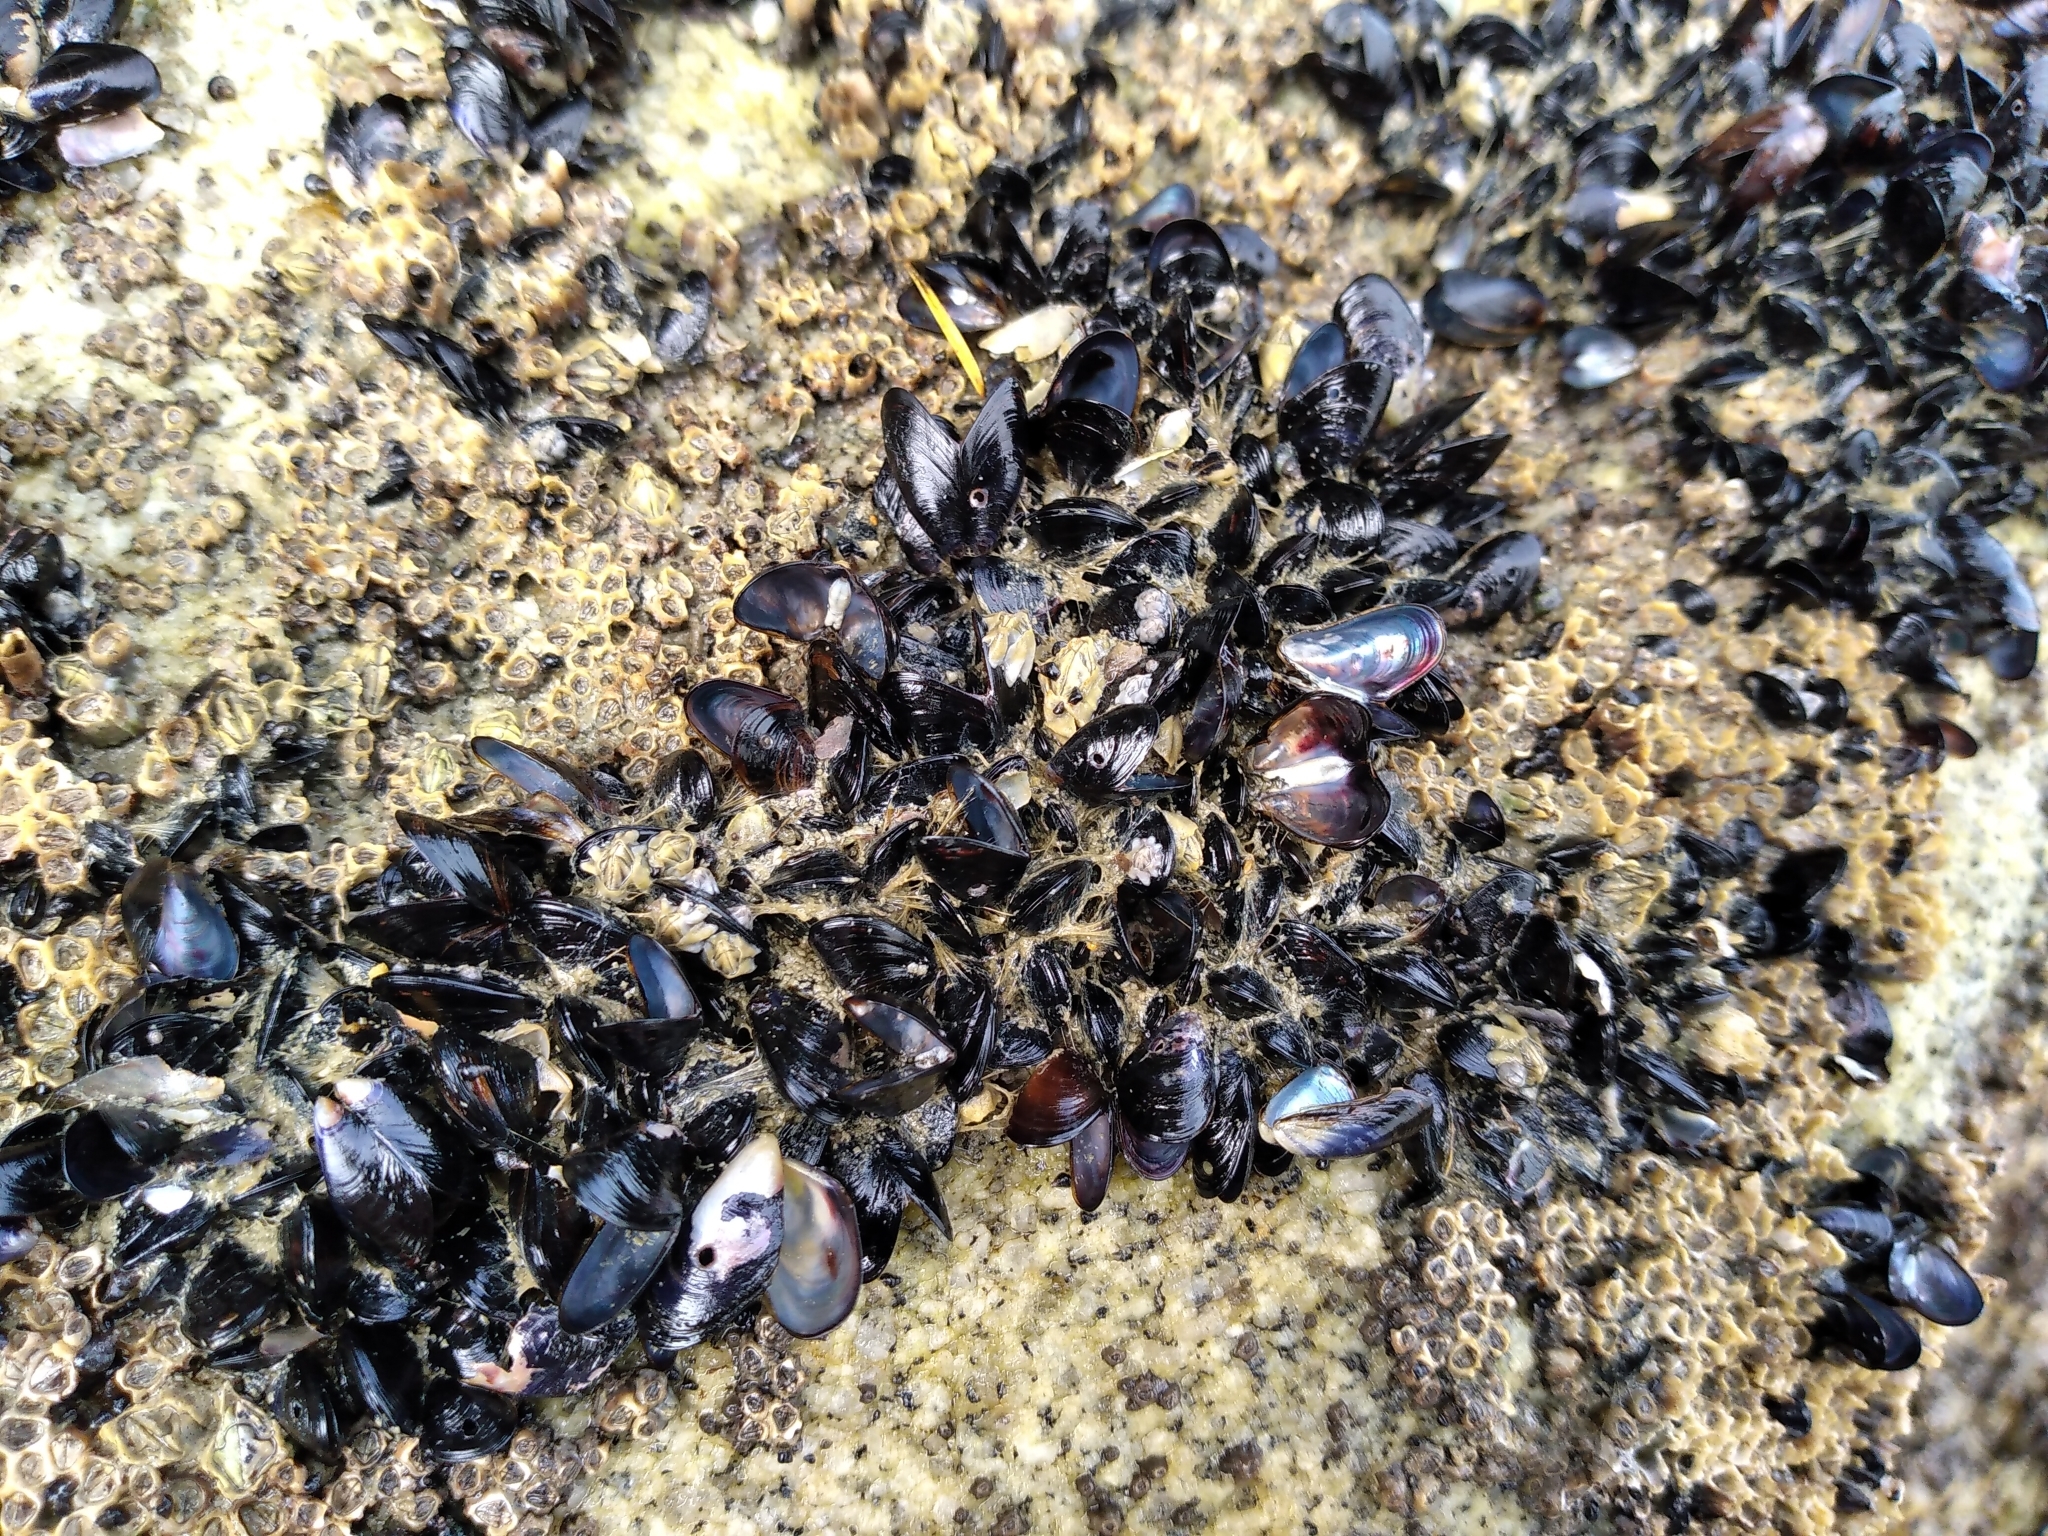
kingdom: Animalia
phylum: Mollusca
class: Bivalvia
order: Mytilida
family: Mytilidae
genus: Xenostrobus
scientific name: Xenostrobus neozelanicus
